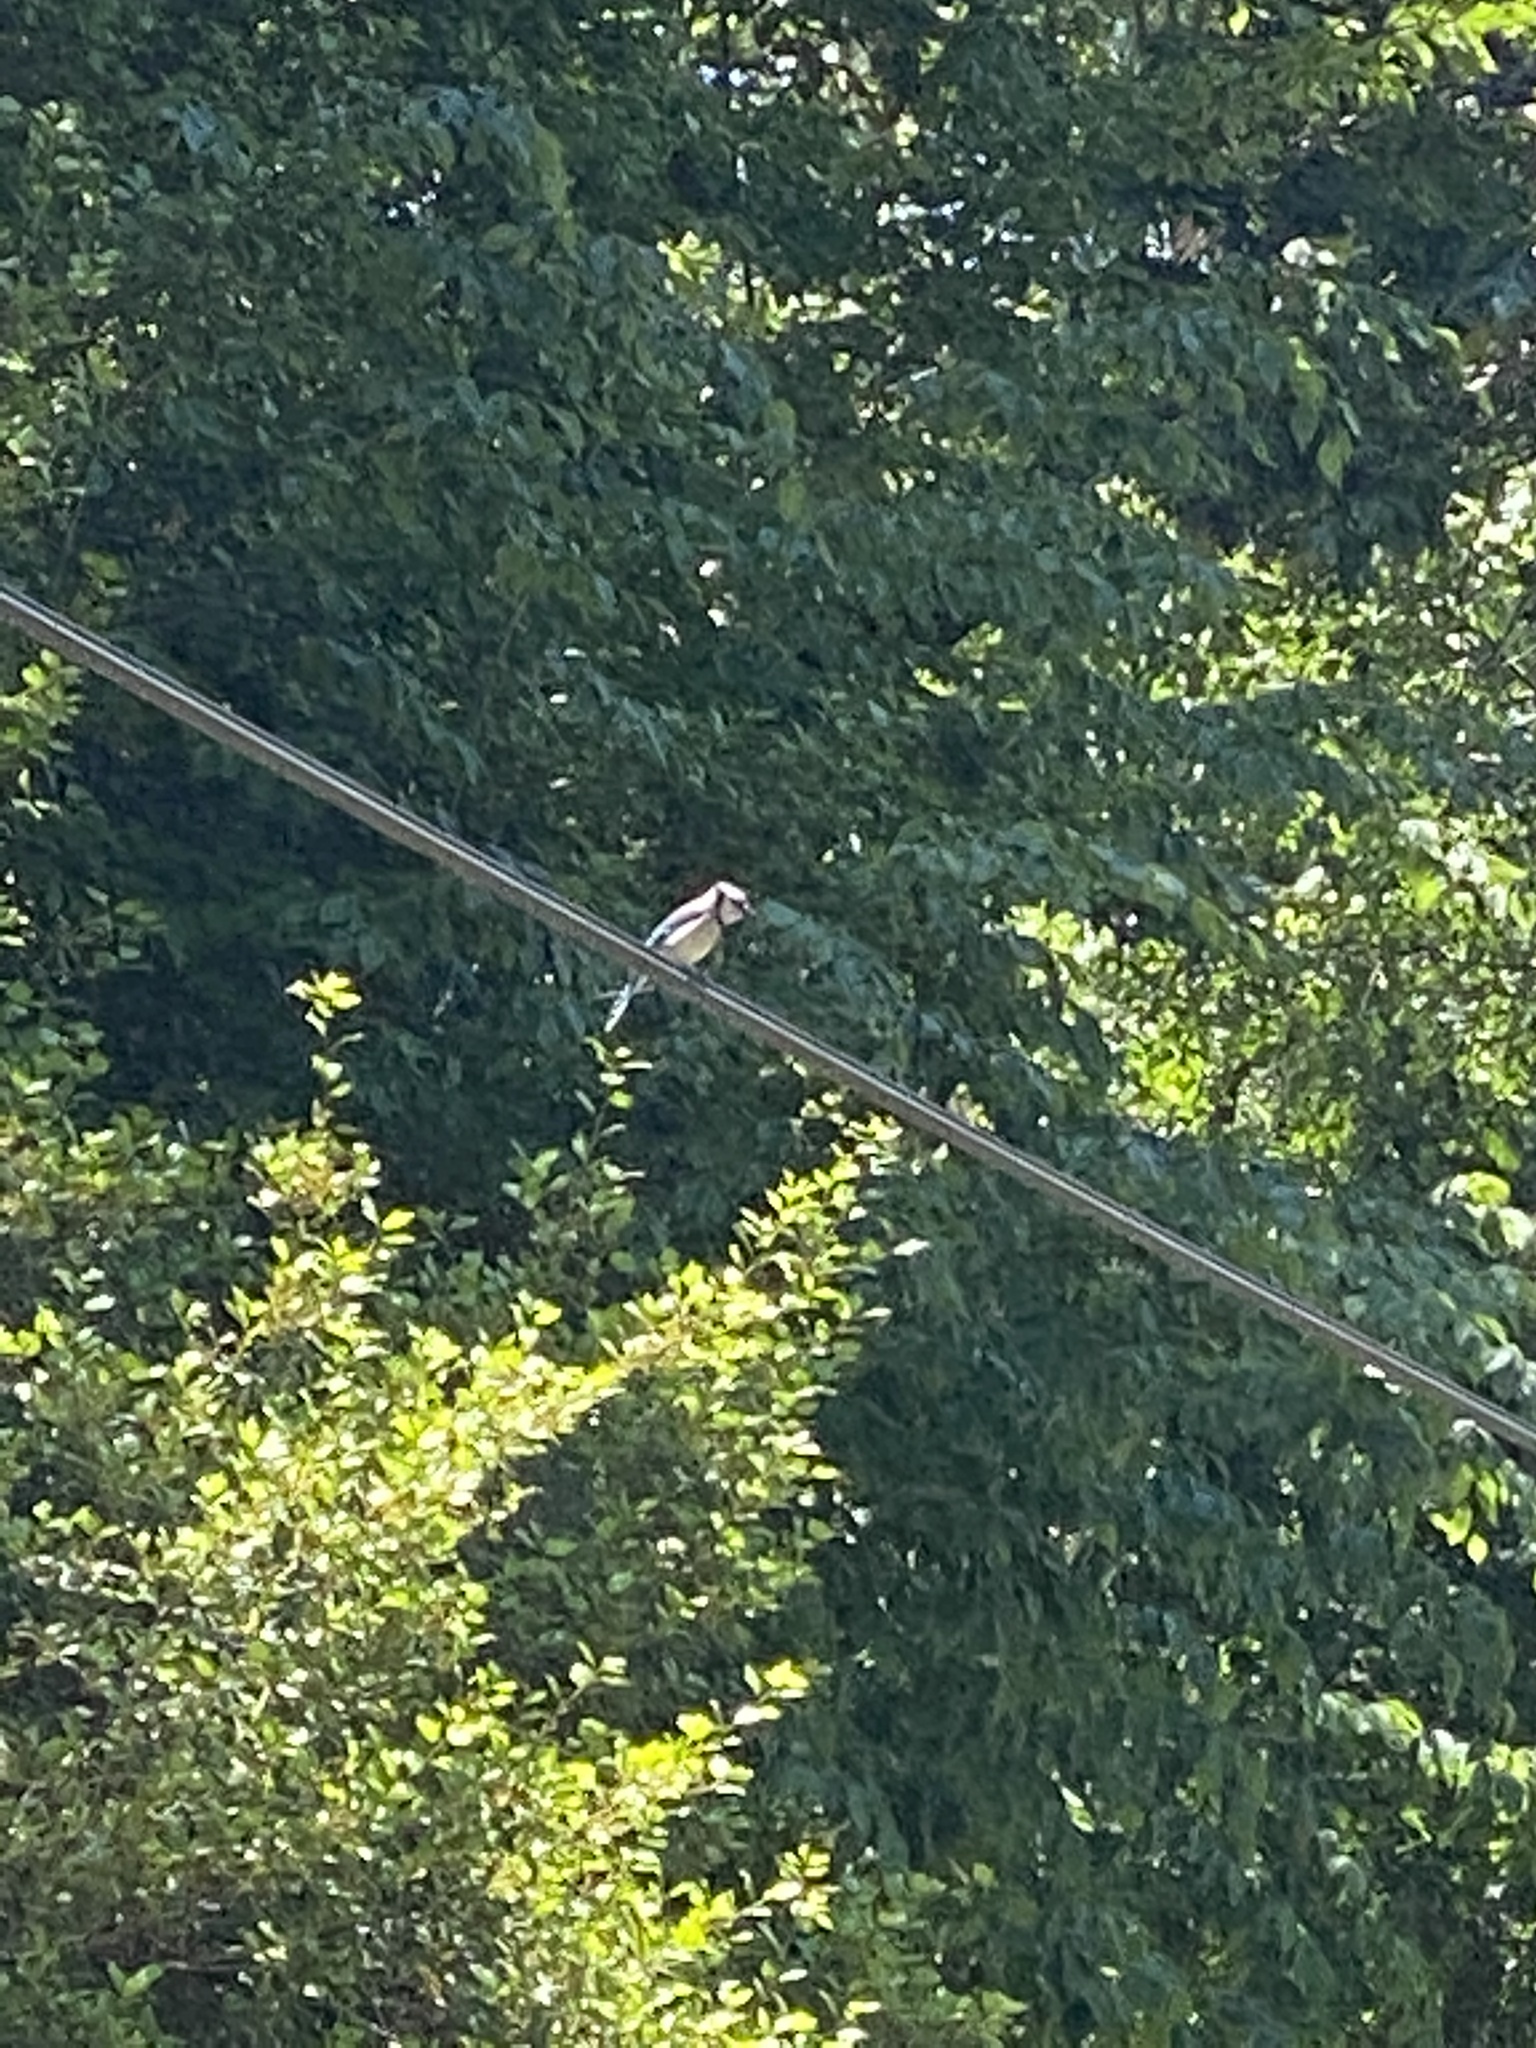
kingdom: Animalia
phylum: Chordata
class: Aves
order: Passeriformes
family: Corvidae
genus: Cyanocitta
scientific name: Cyanocitta cristata
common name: Blue jay
